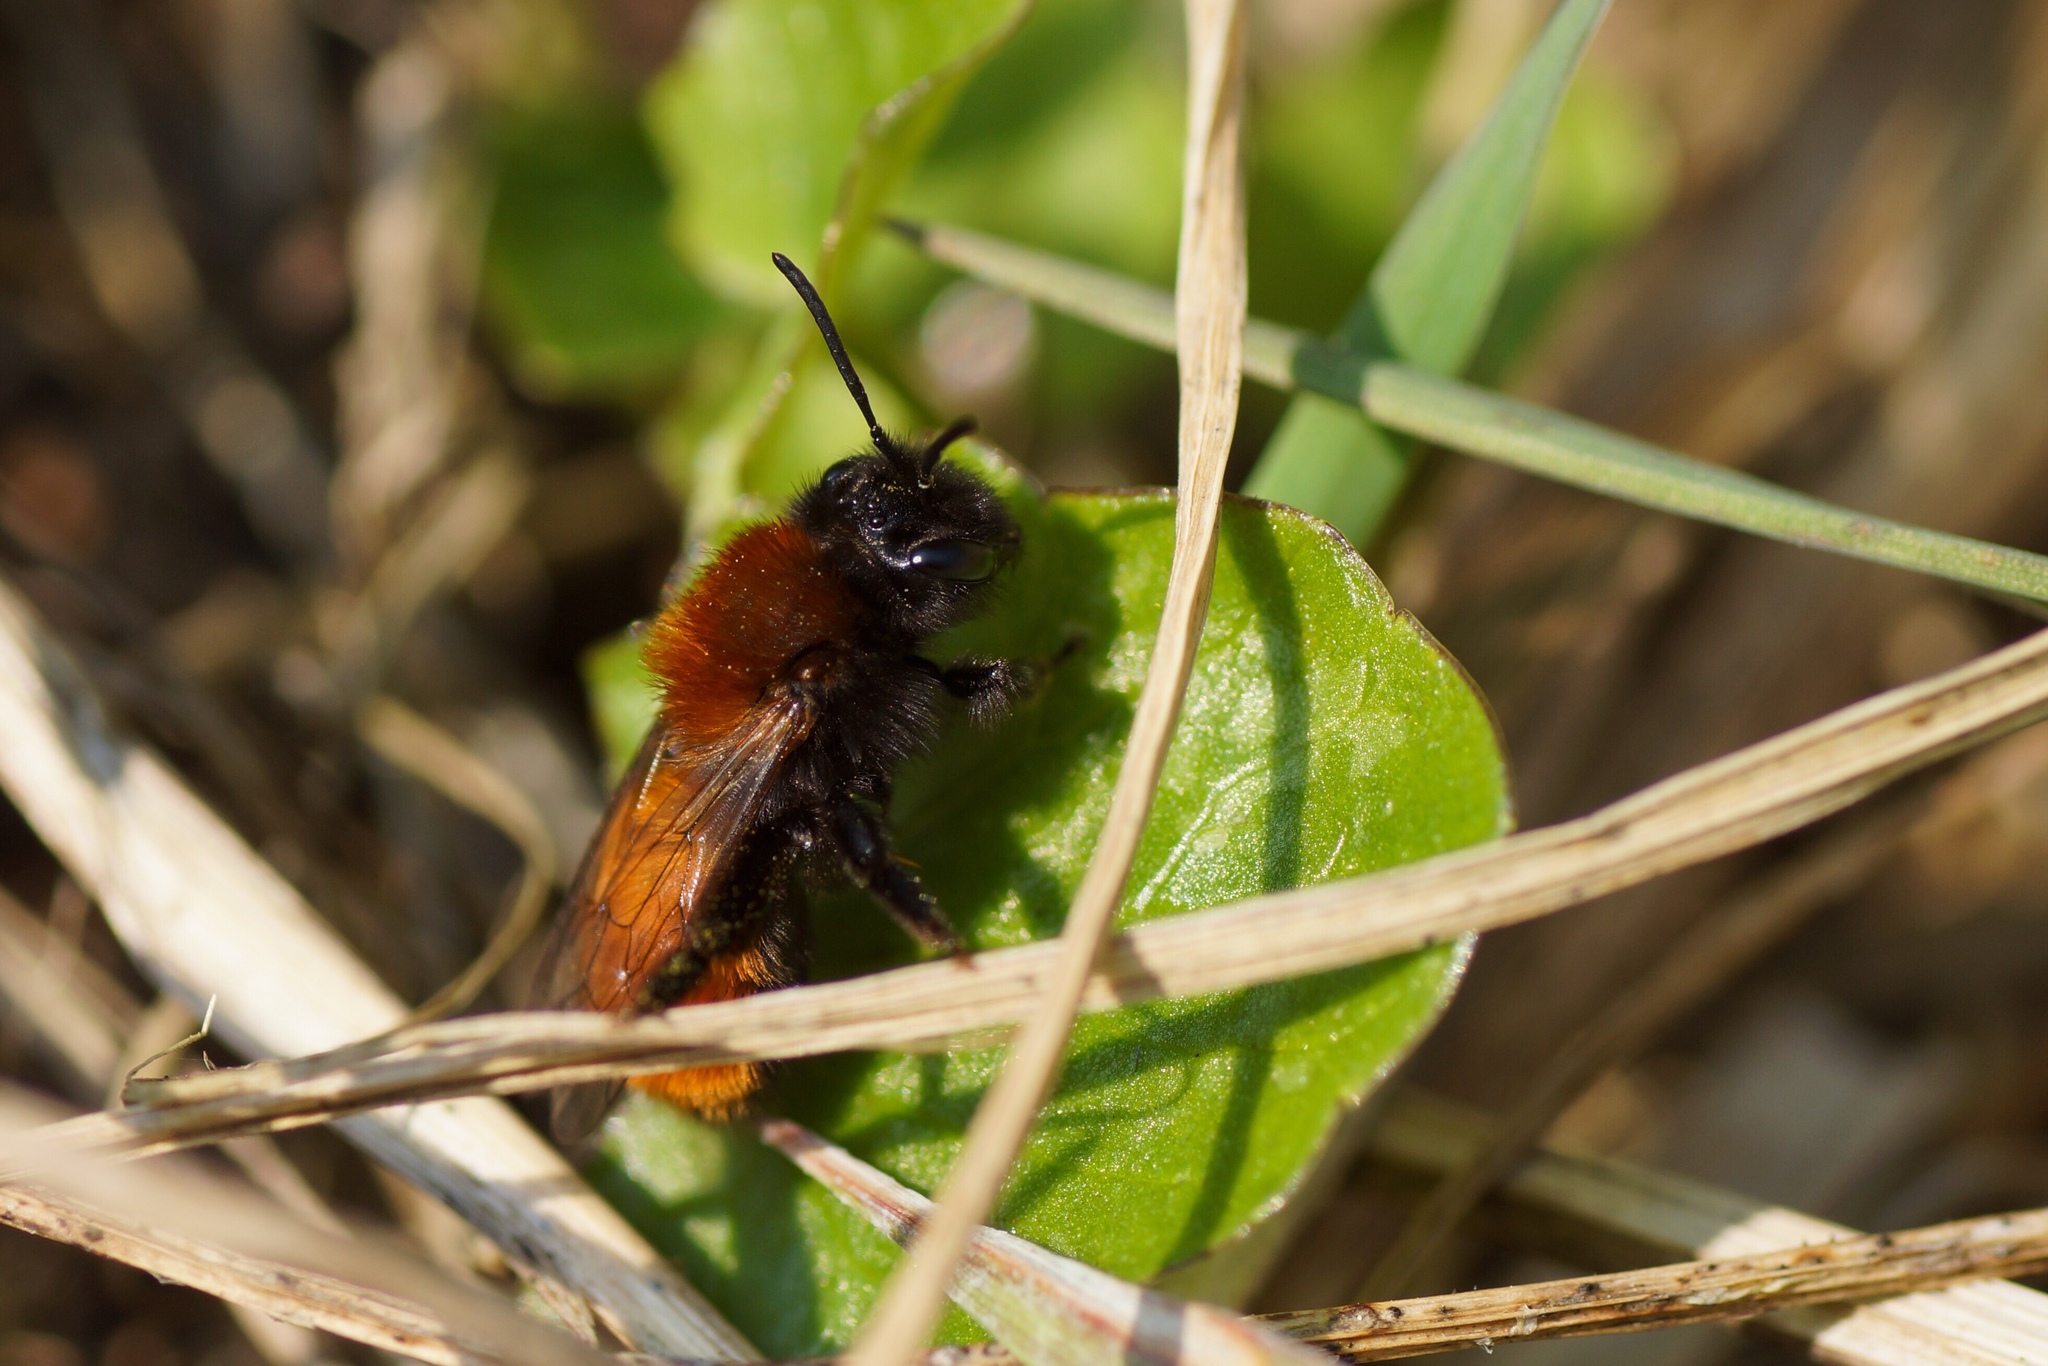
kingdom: Animalia
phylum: Arthropoda
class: Insecta
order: Hymenoptera
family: Andrenidae
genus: Andrena
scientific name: Andrena fulva
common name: Tawny mining bee
